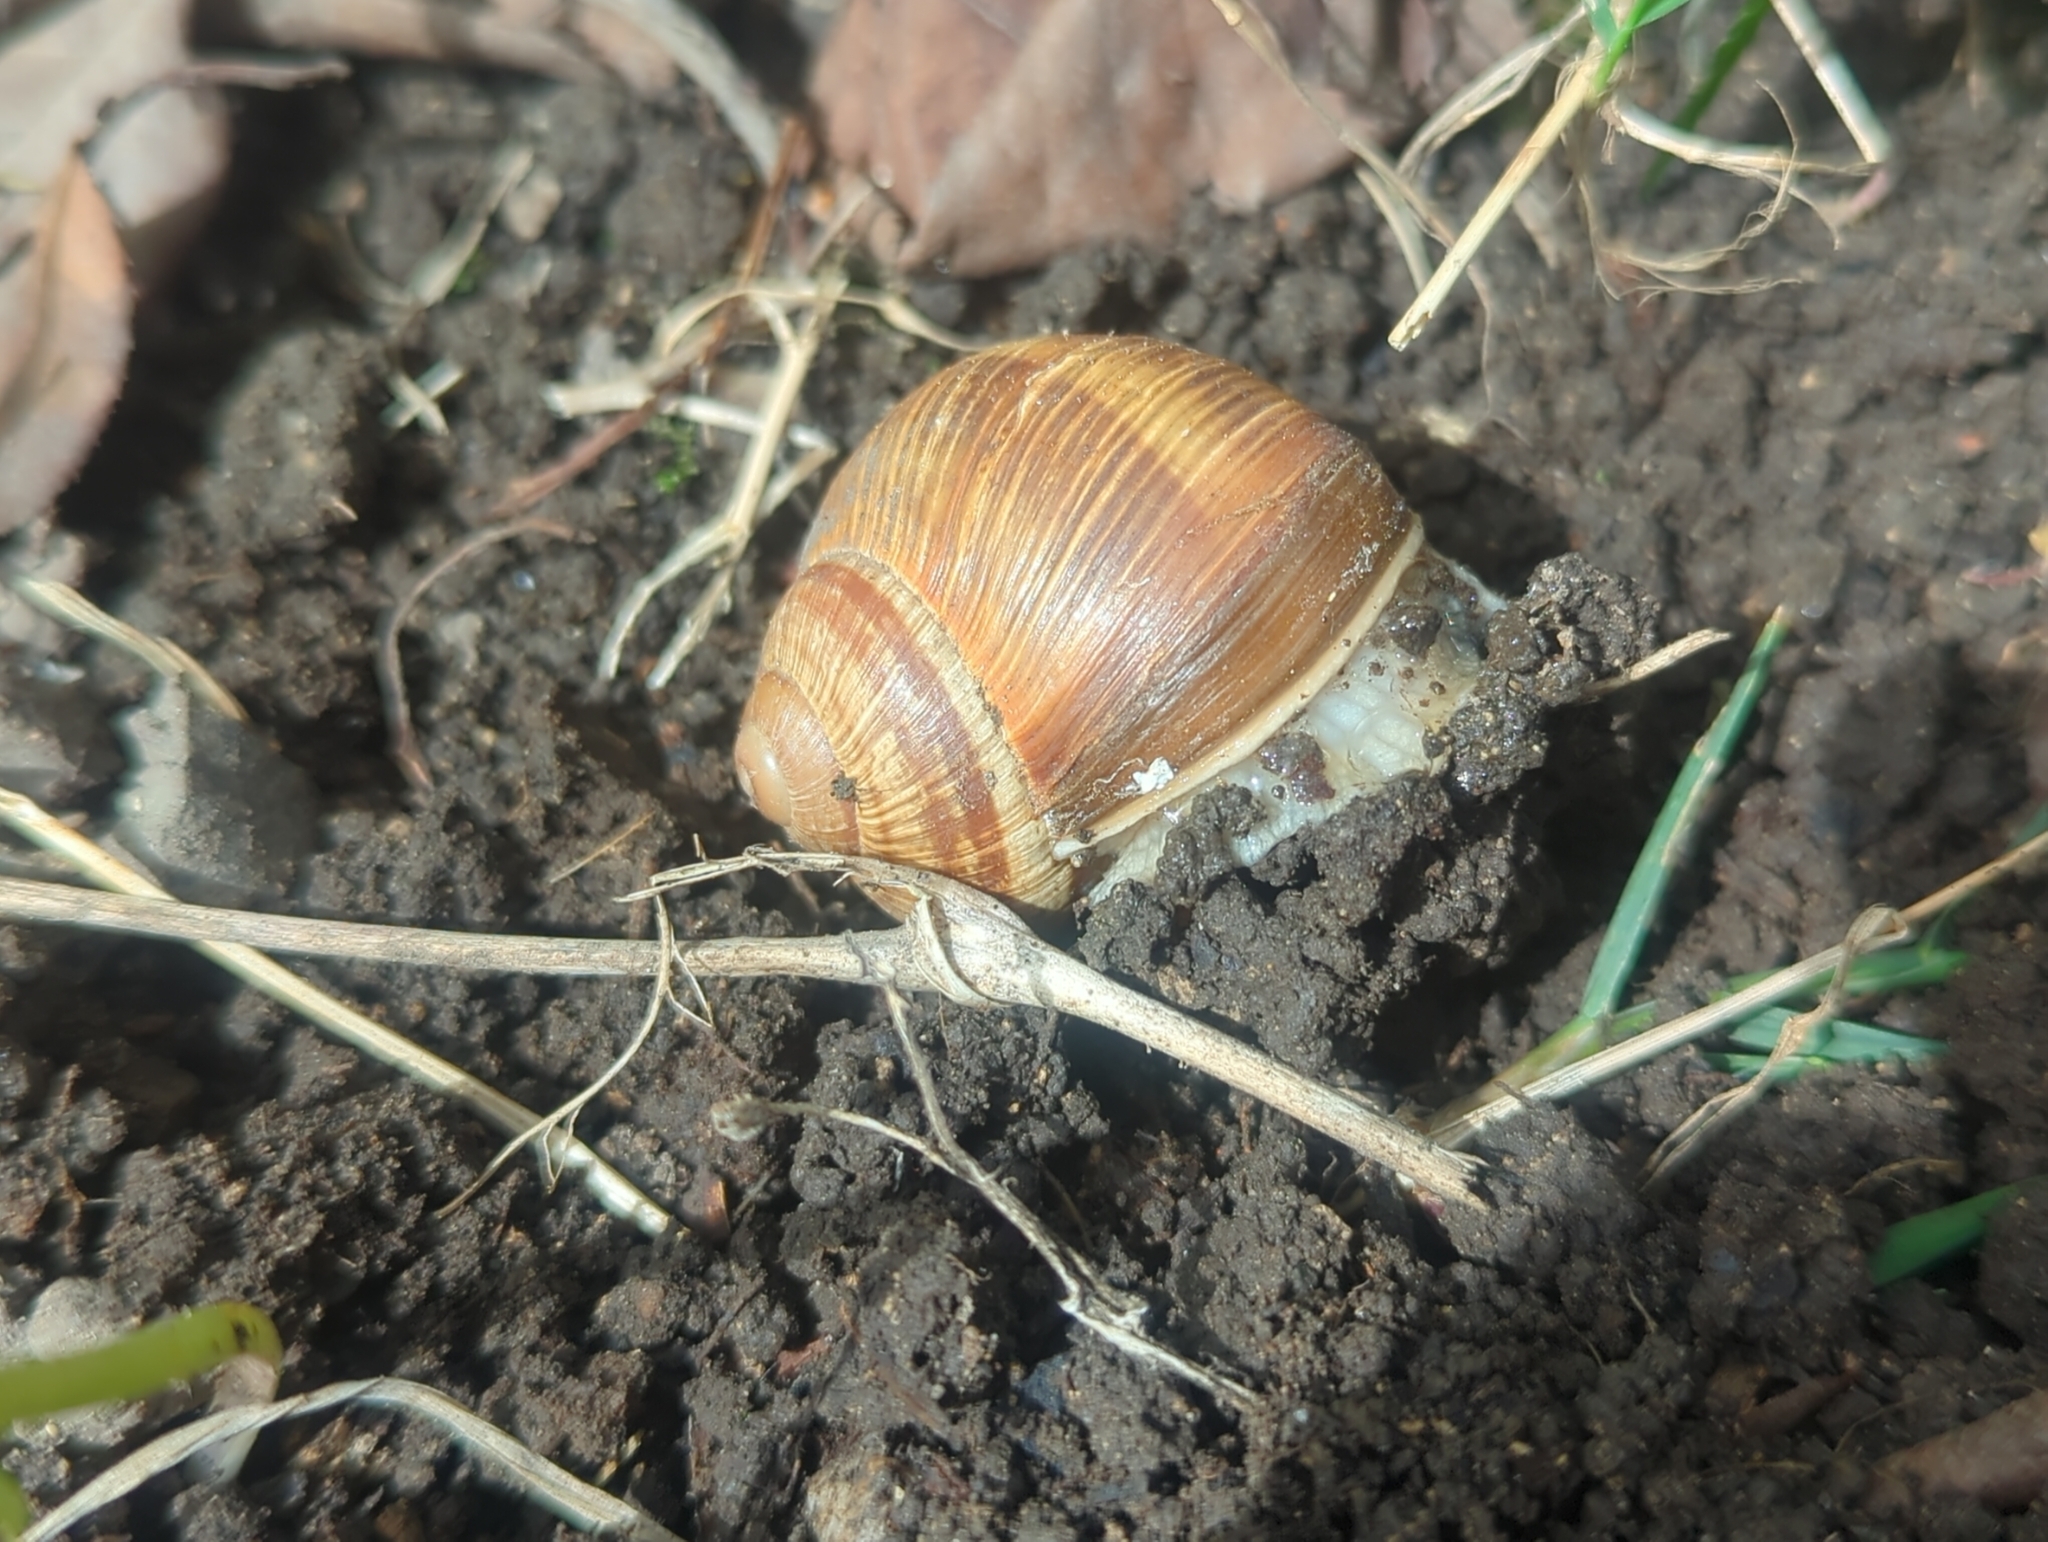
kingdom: Animalia
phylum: Mollusca
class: Gastropoda
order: Stylommatophora
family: Helicidae
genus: Helix
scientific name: Helix pomatia
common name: Roman snail
